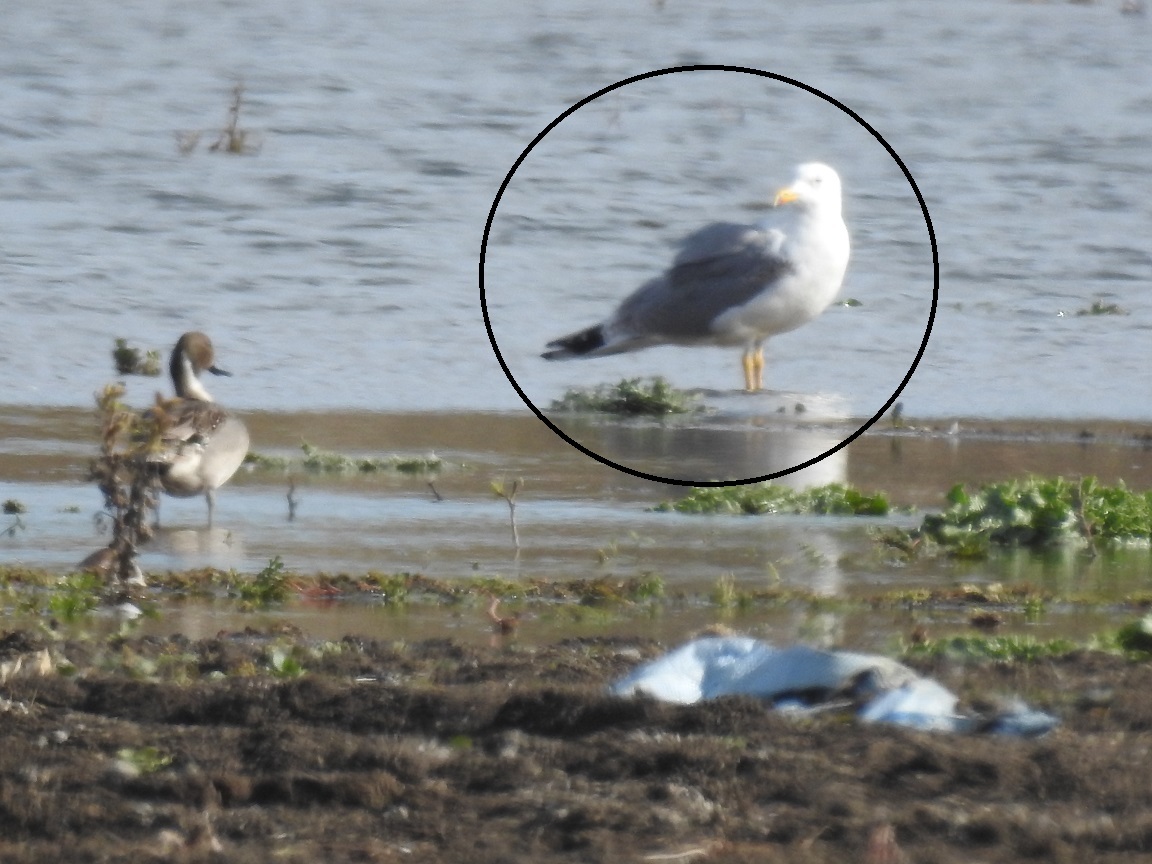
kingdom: Animalia
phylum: Chordata
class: Aves
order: Charadriiformes
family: Laridae
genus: Larus
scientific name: Larus michahellis
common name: Yellow-legged gull
